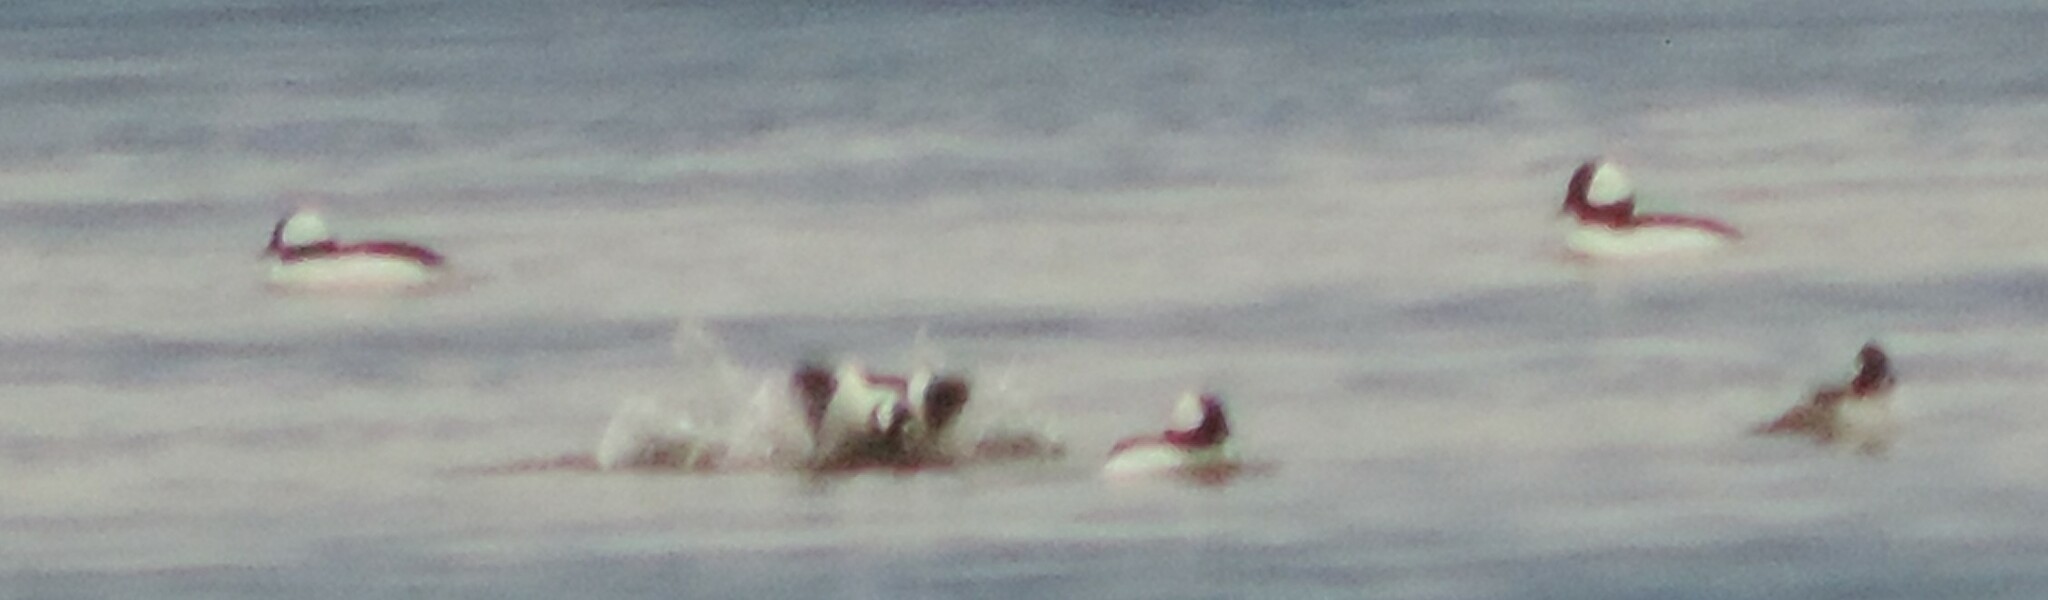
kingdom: Animalia
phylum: Chordata
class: Aves
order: Anseriformes
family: Anatidae
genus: Bucephala
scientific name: Bucephala albeola
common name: Bufflehead
